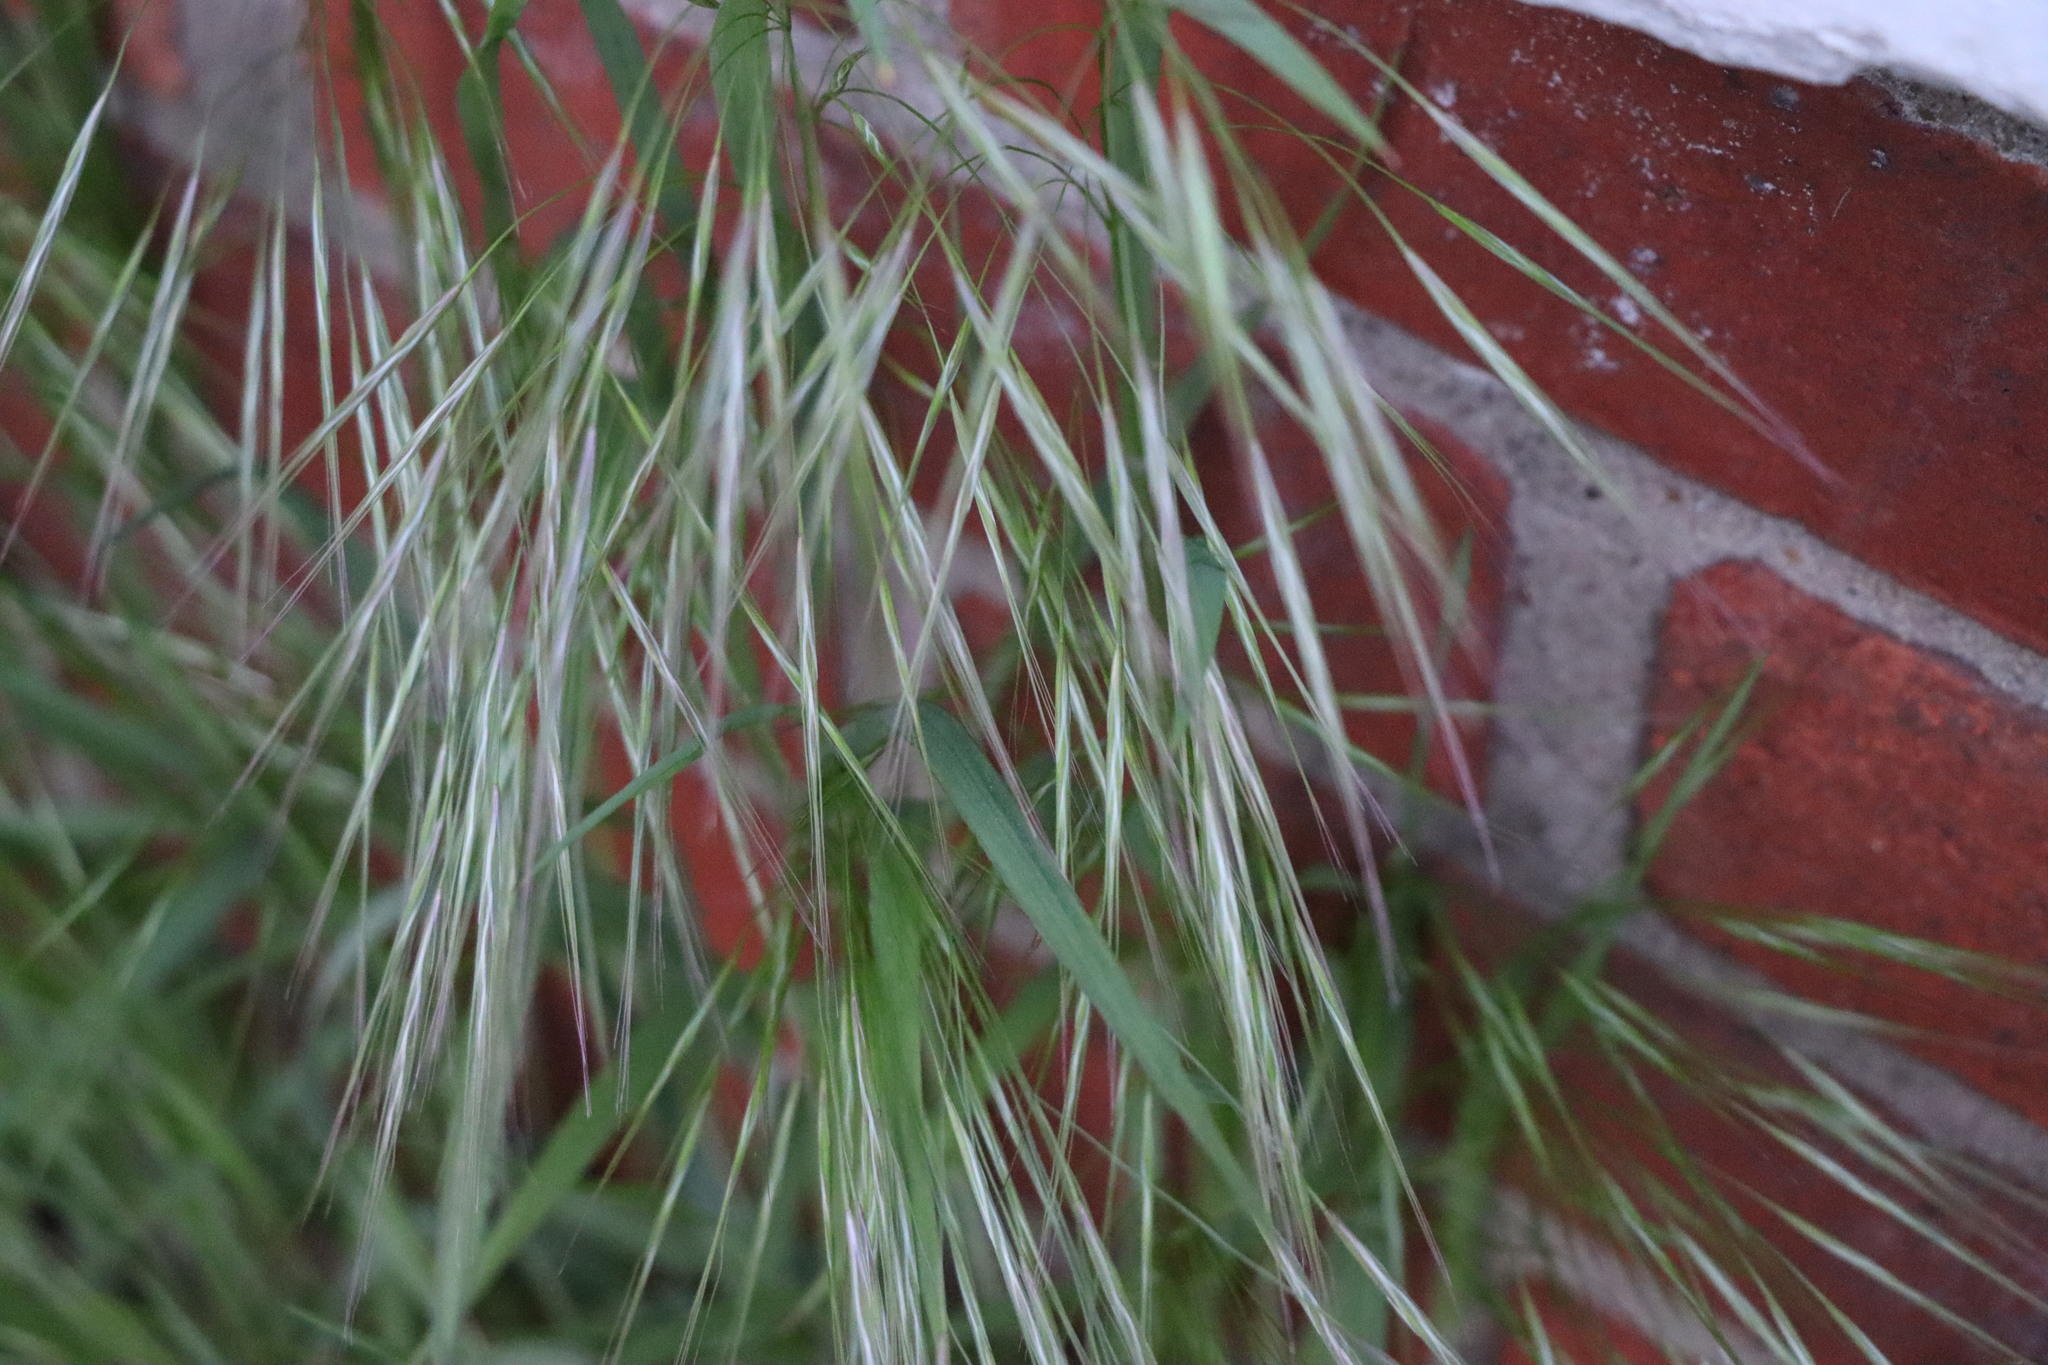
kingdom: Plantae
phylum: Tracheophyta
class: Liliopsida
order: Poales
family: Poaceae
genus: Bromus
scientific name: Bromus sterilis
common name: Poverty brome
